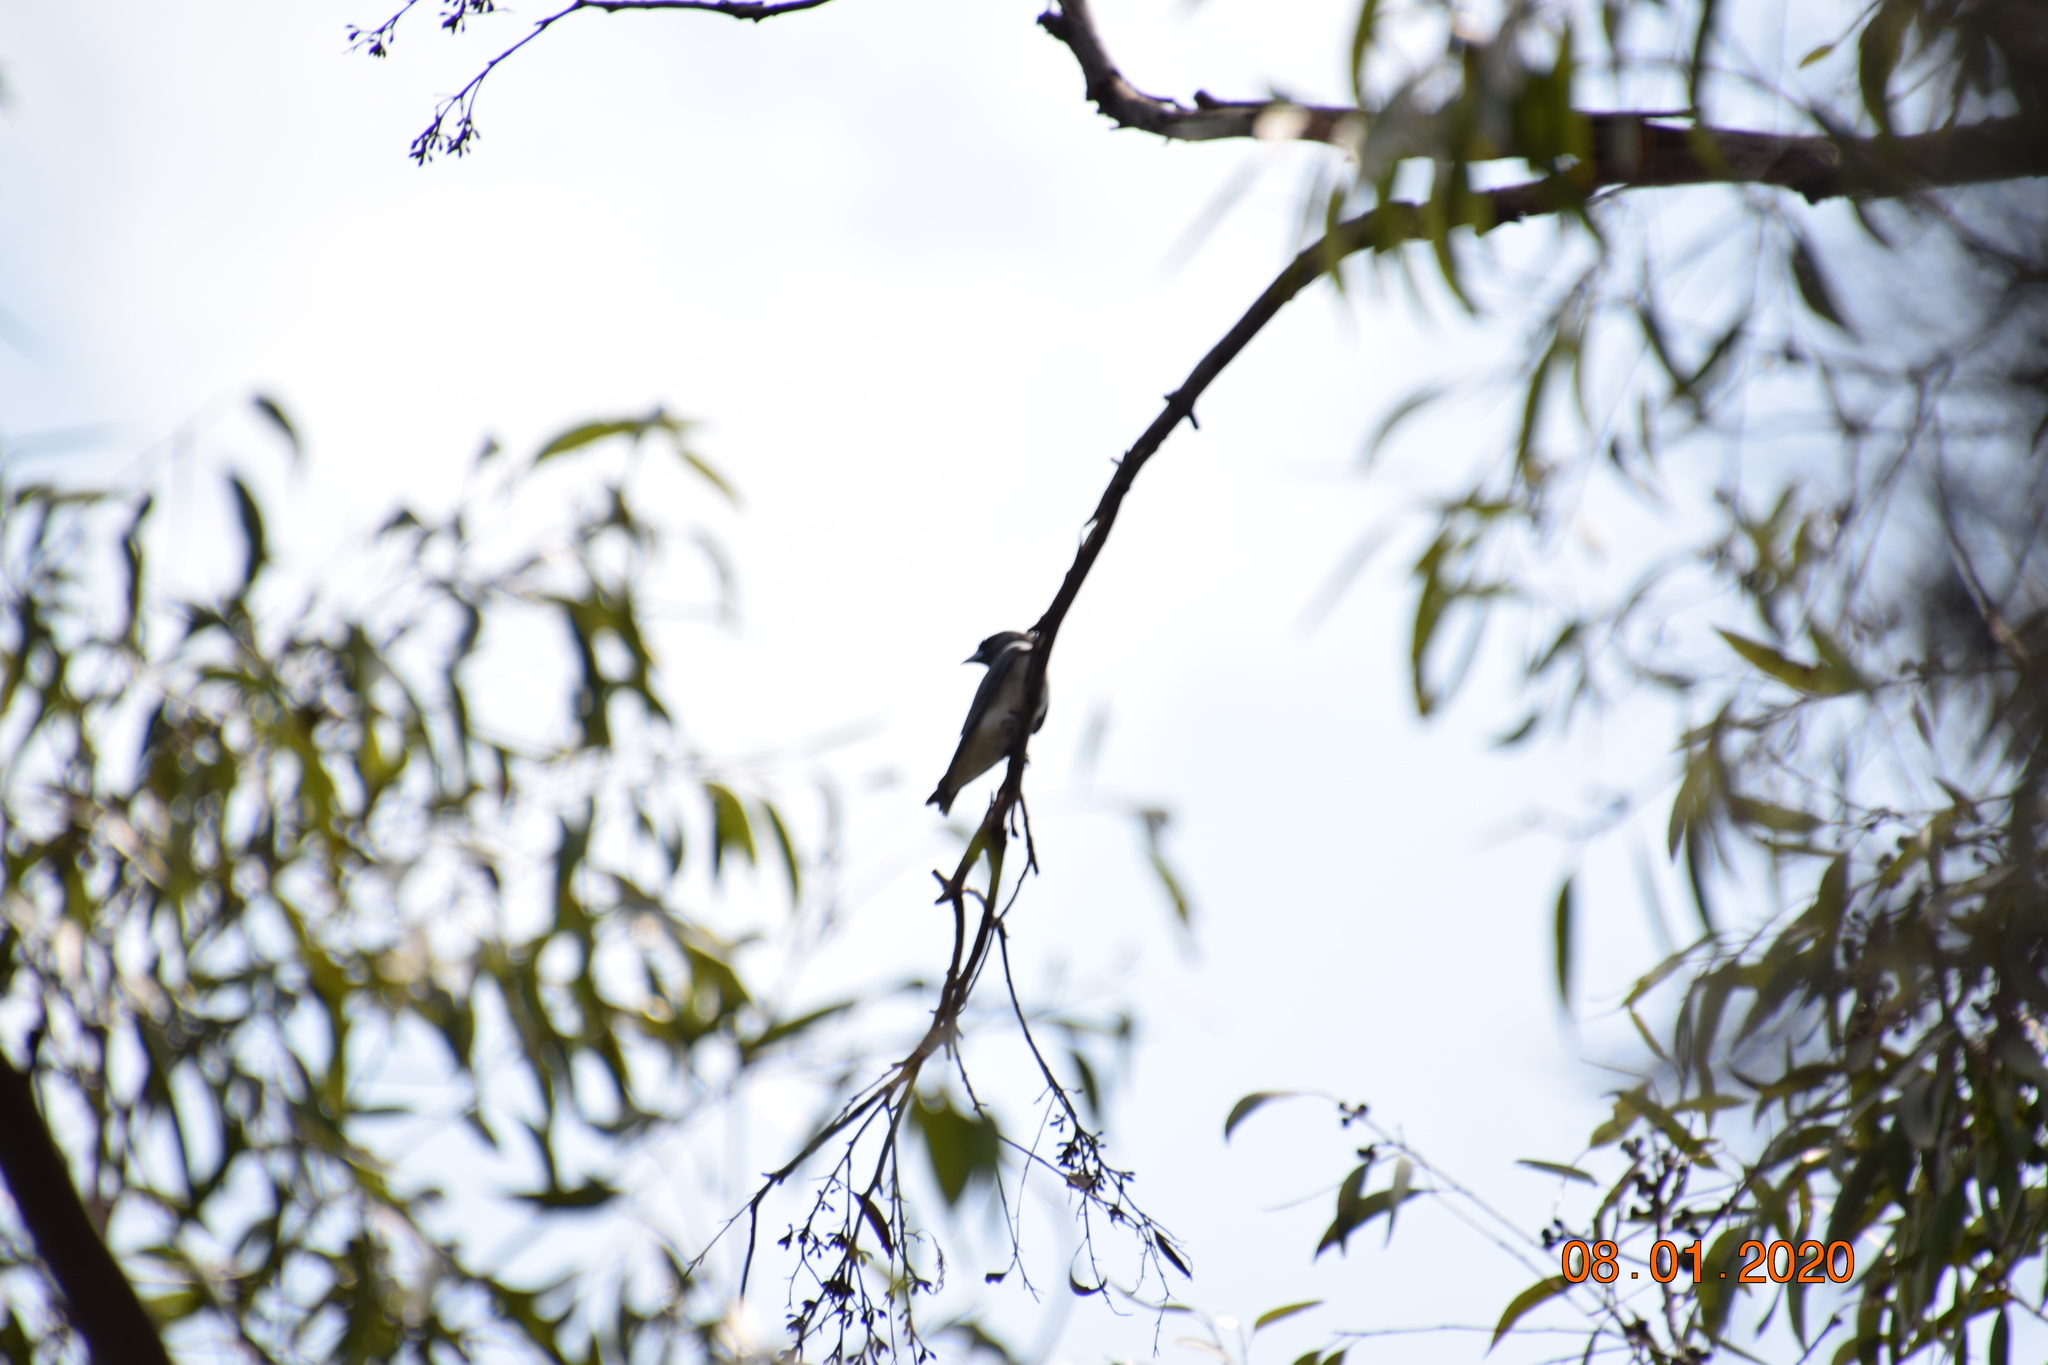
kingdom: Animalia
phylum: Chordata
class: Aves
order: Passeriformes
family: Artamidae
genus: Artamus
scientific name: Artamus leucoryn
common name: White-breasted woodswallow
